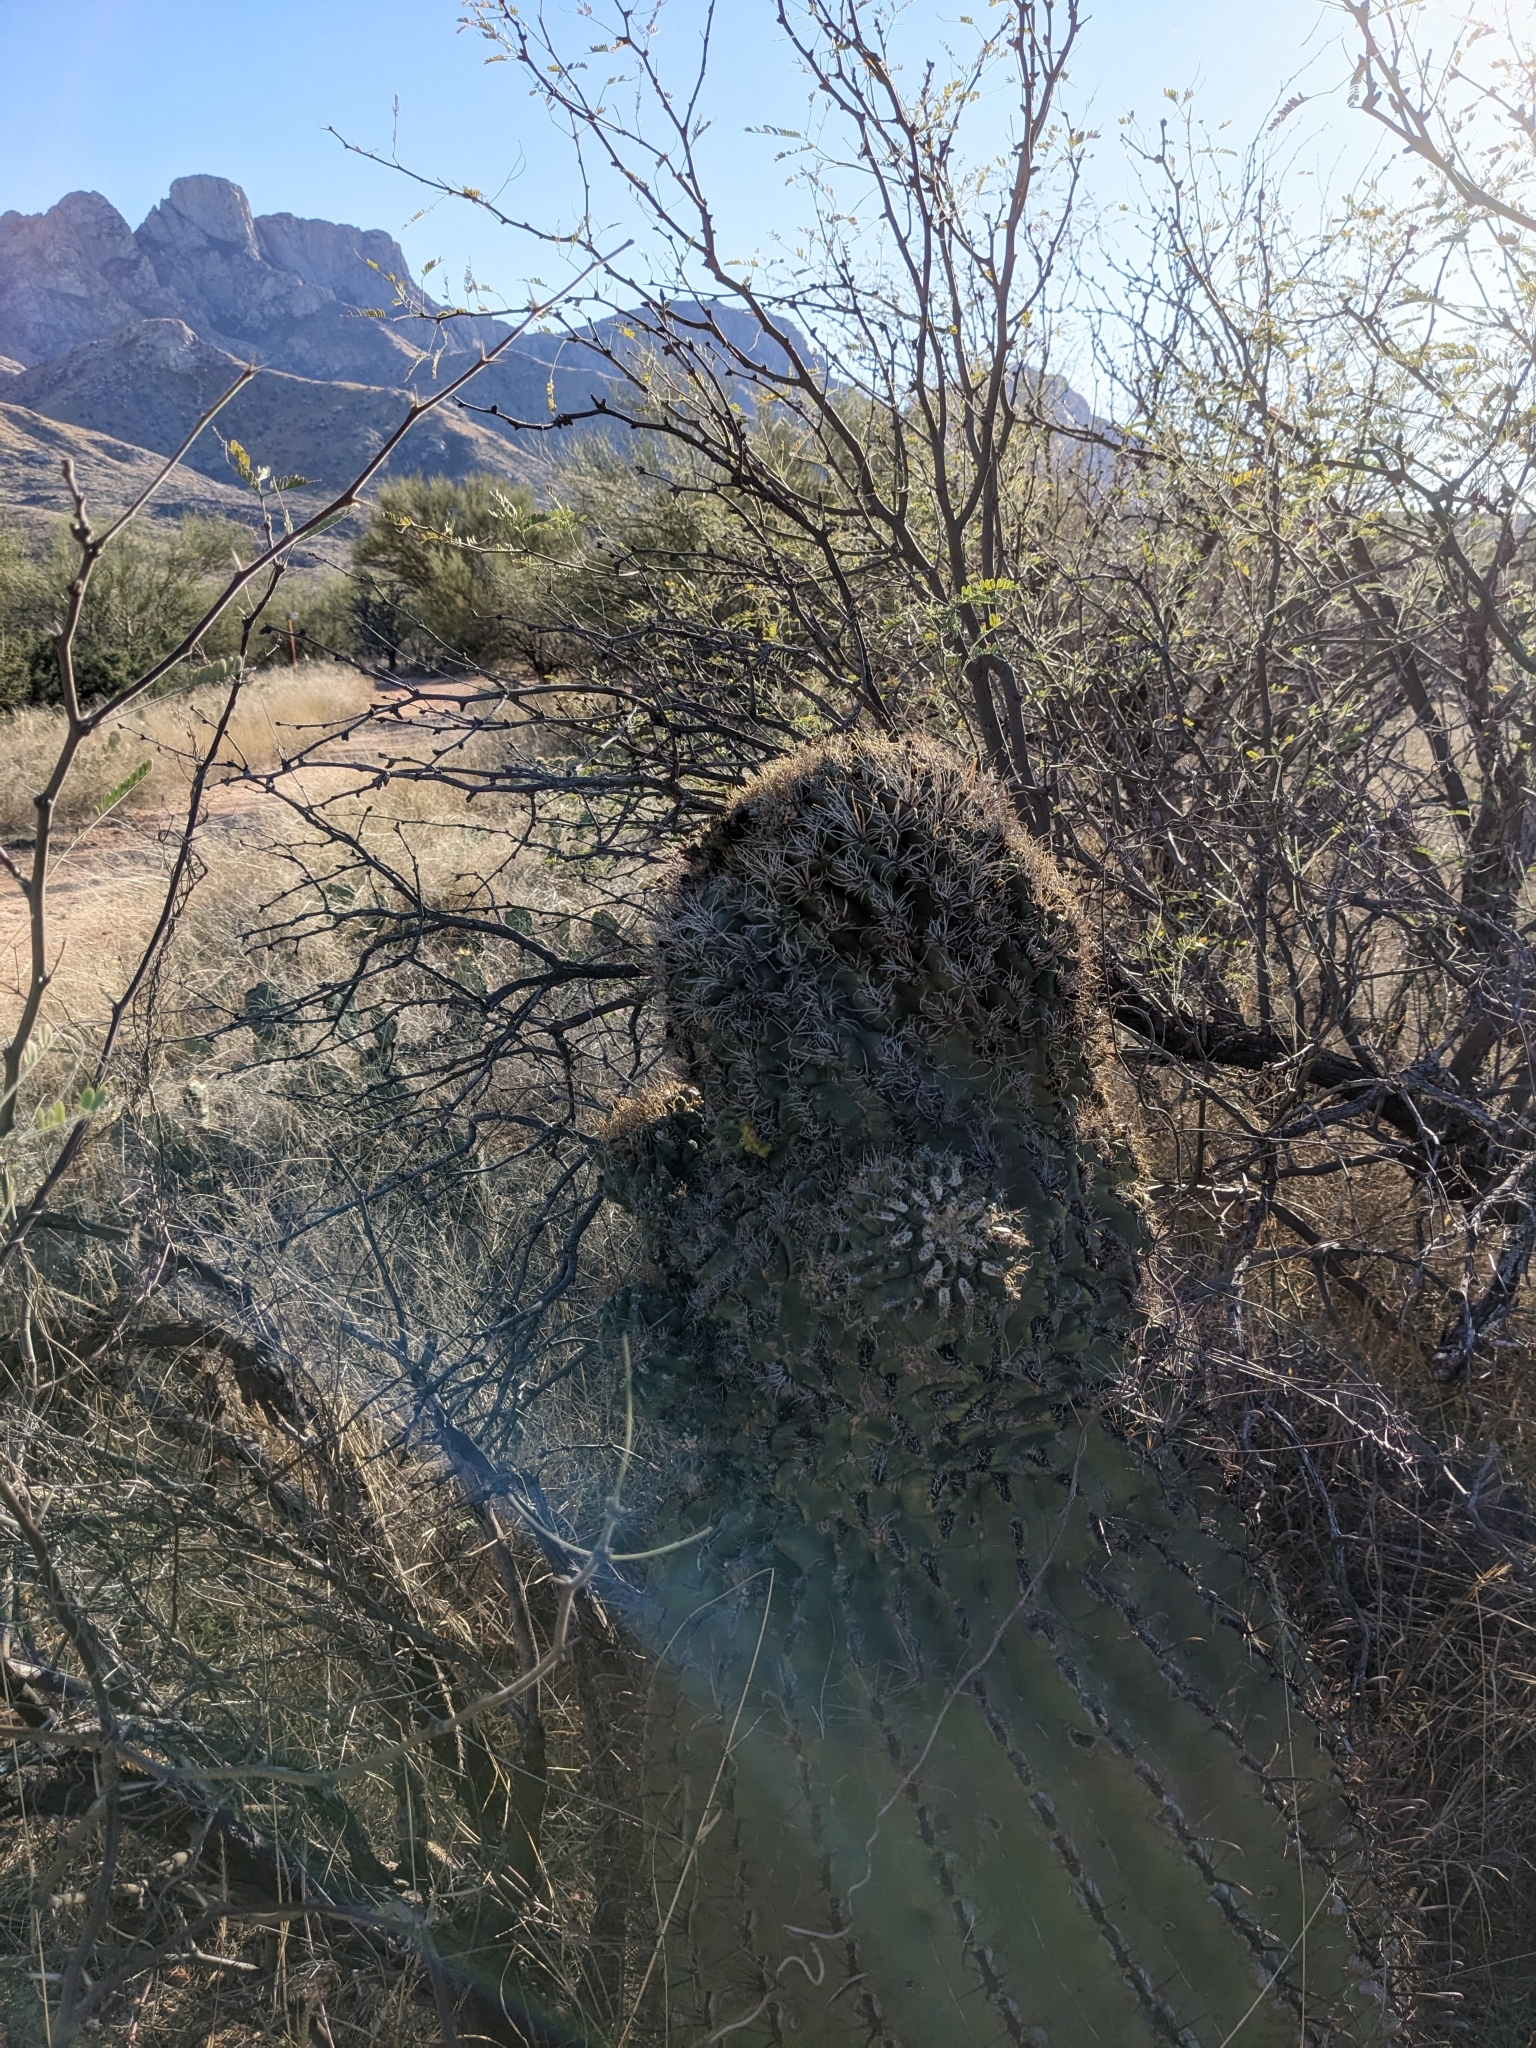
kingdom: Plantae
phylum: Tracheophyta
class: Magnoliopsida
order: Caryophyllales
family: Cactaceae
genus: Ferocactus
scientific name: Ferocactus wislizeni
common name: Candy barrel cactus
